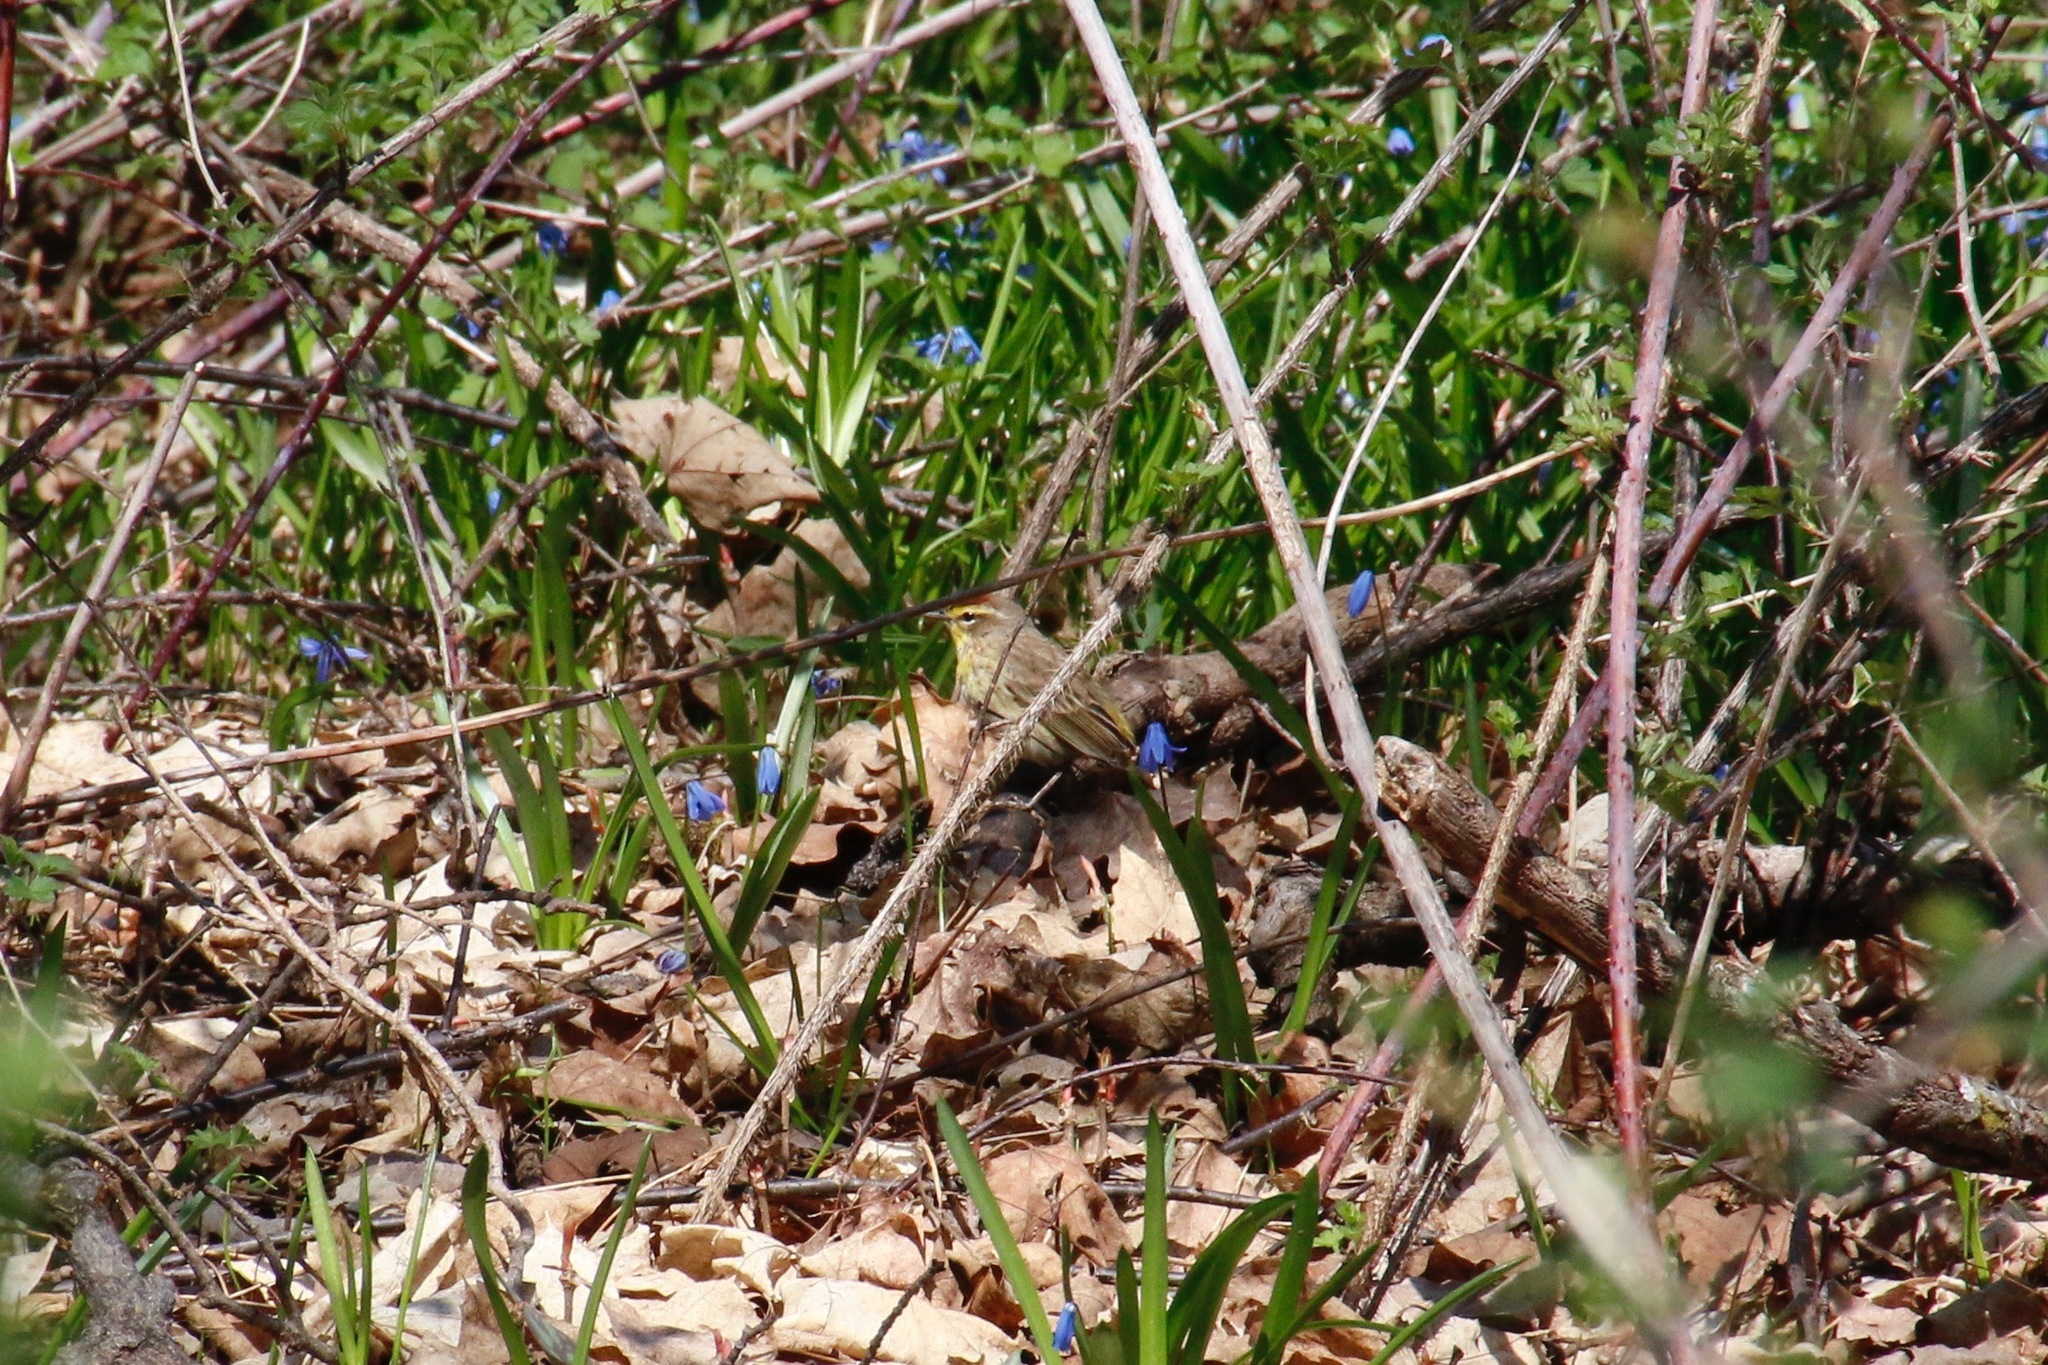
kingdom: Animalia
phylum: Chordata
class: Aves
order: Passeriformes
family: Parulidae
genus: Setophaga
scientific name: Setophaga palmarum
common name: Palm warbler
